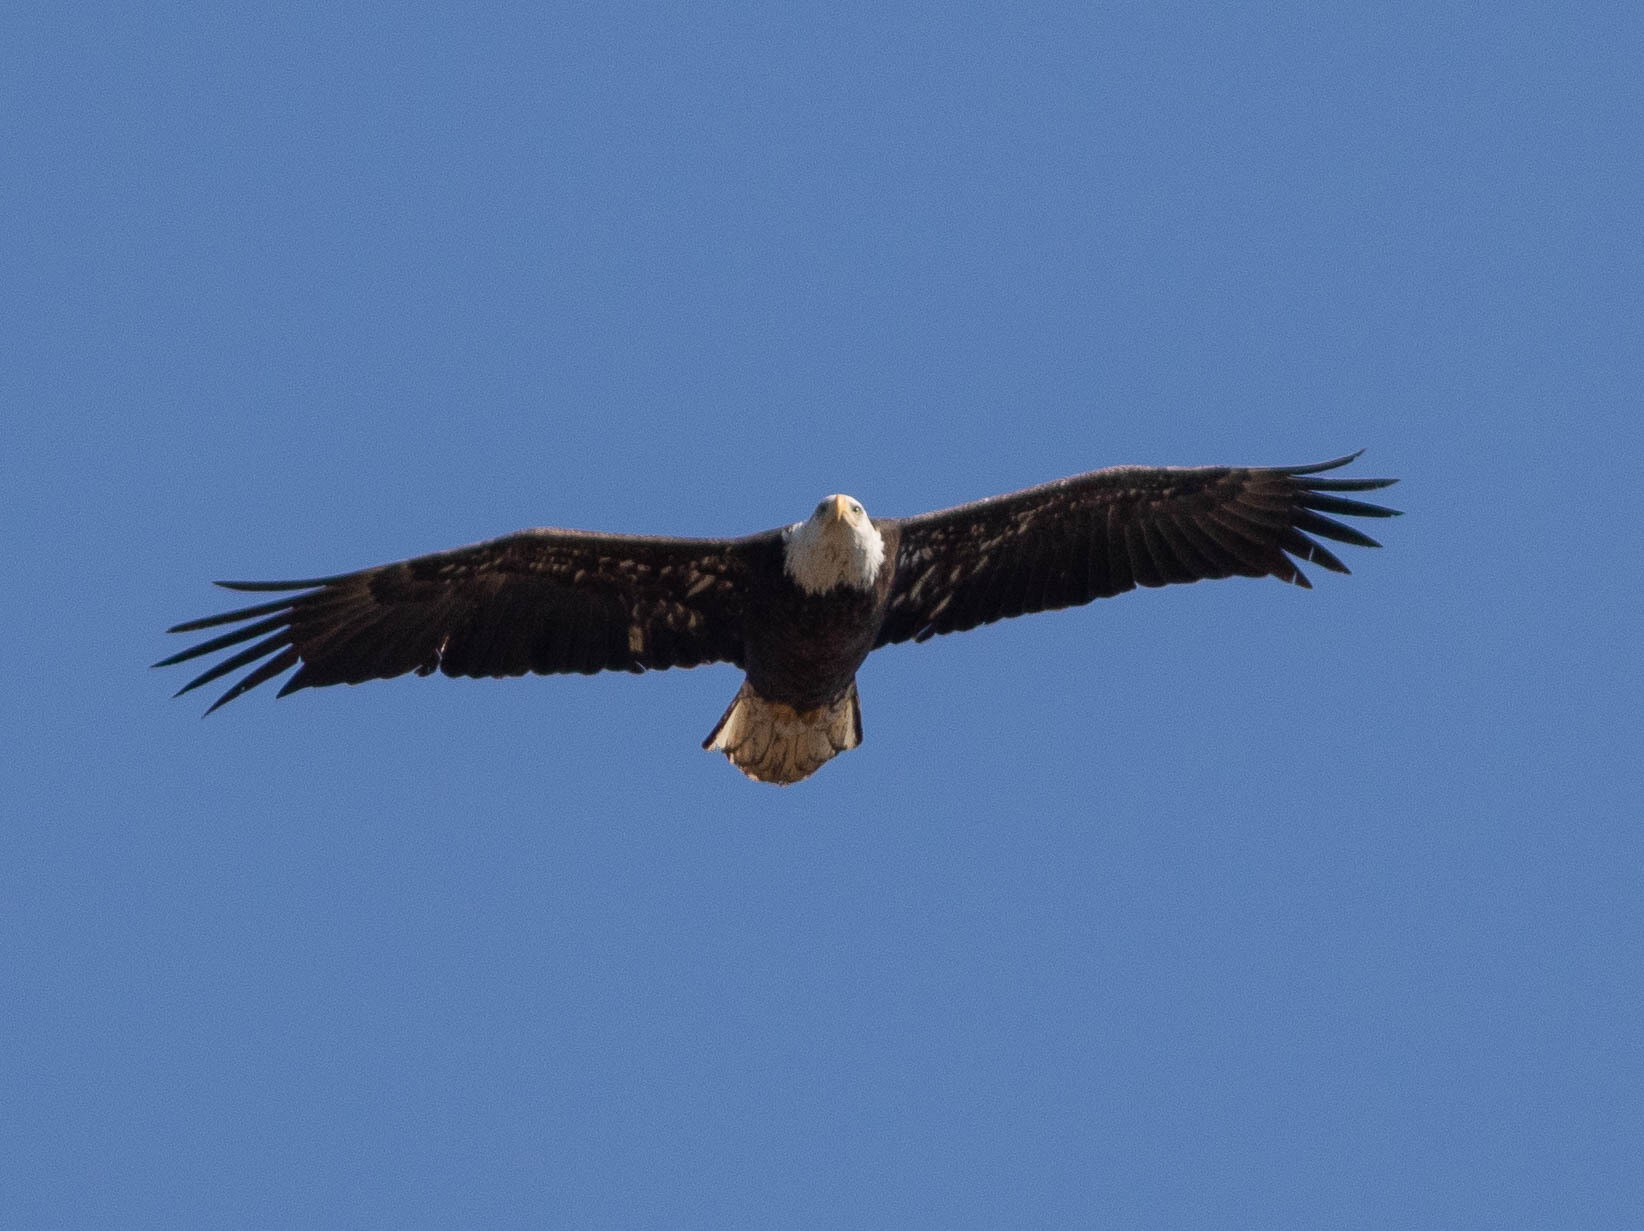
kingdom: Animalia
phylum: Chordata
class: Aves
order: Accipitriformes
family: Accipitridae
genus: Haliaeetus
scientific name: Haliaeetus leucocephalus
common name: Bald eagle
